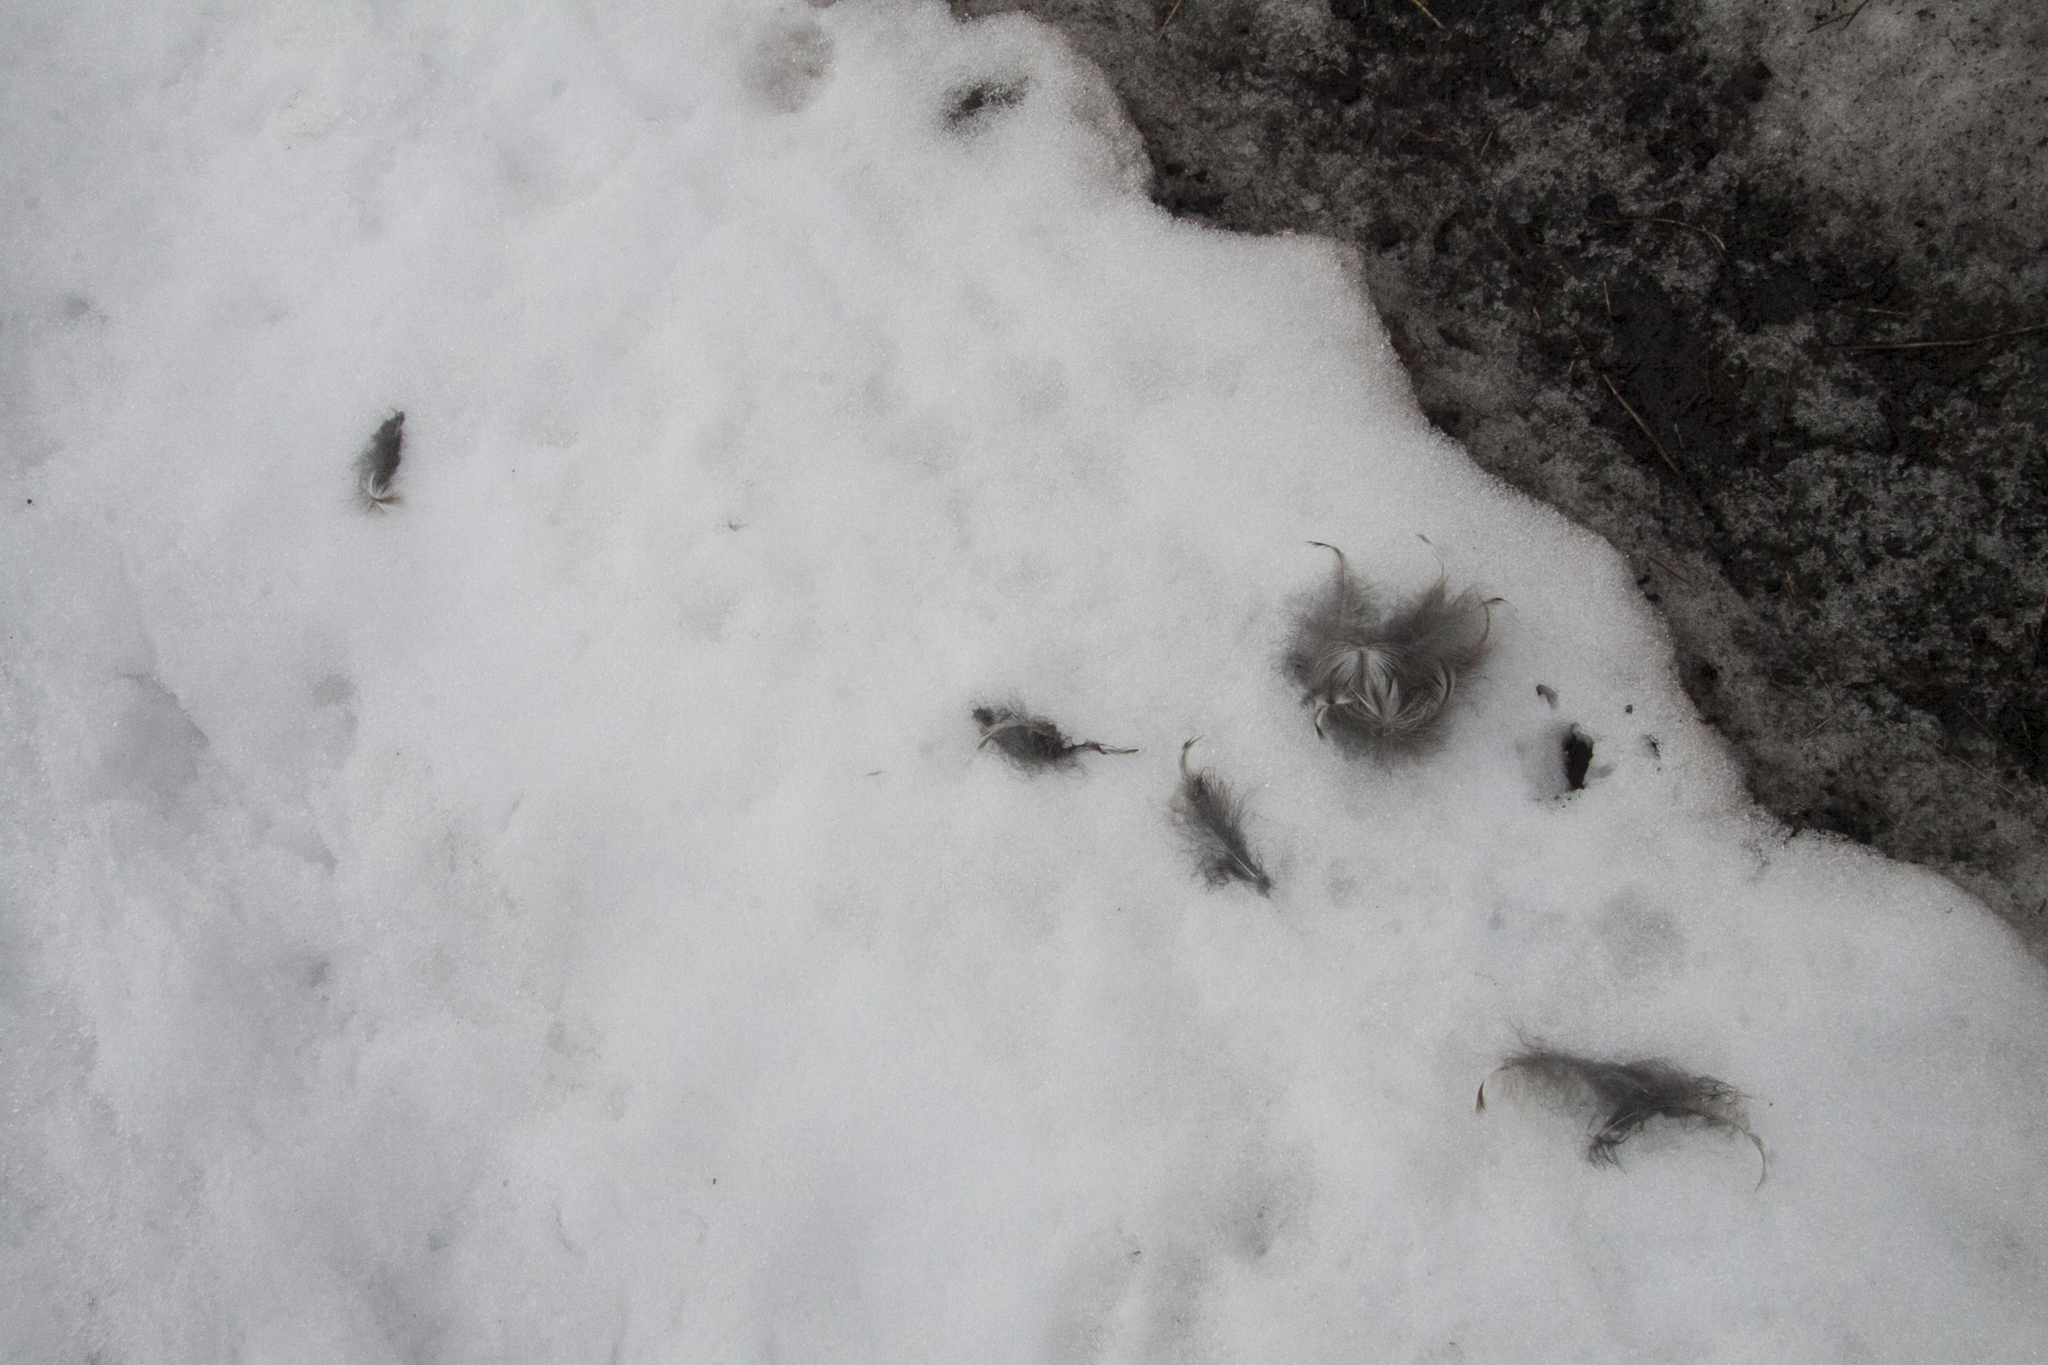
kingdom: Animalia
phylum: Chordata
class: Aves
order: Strigiformes
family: Strigidae
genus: Strix
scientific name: Strix uralensis
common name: Ural owl
